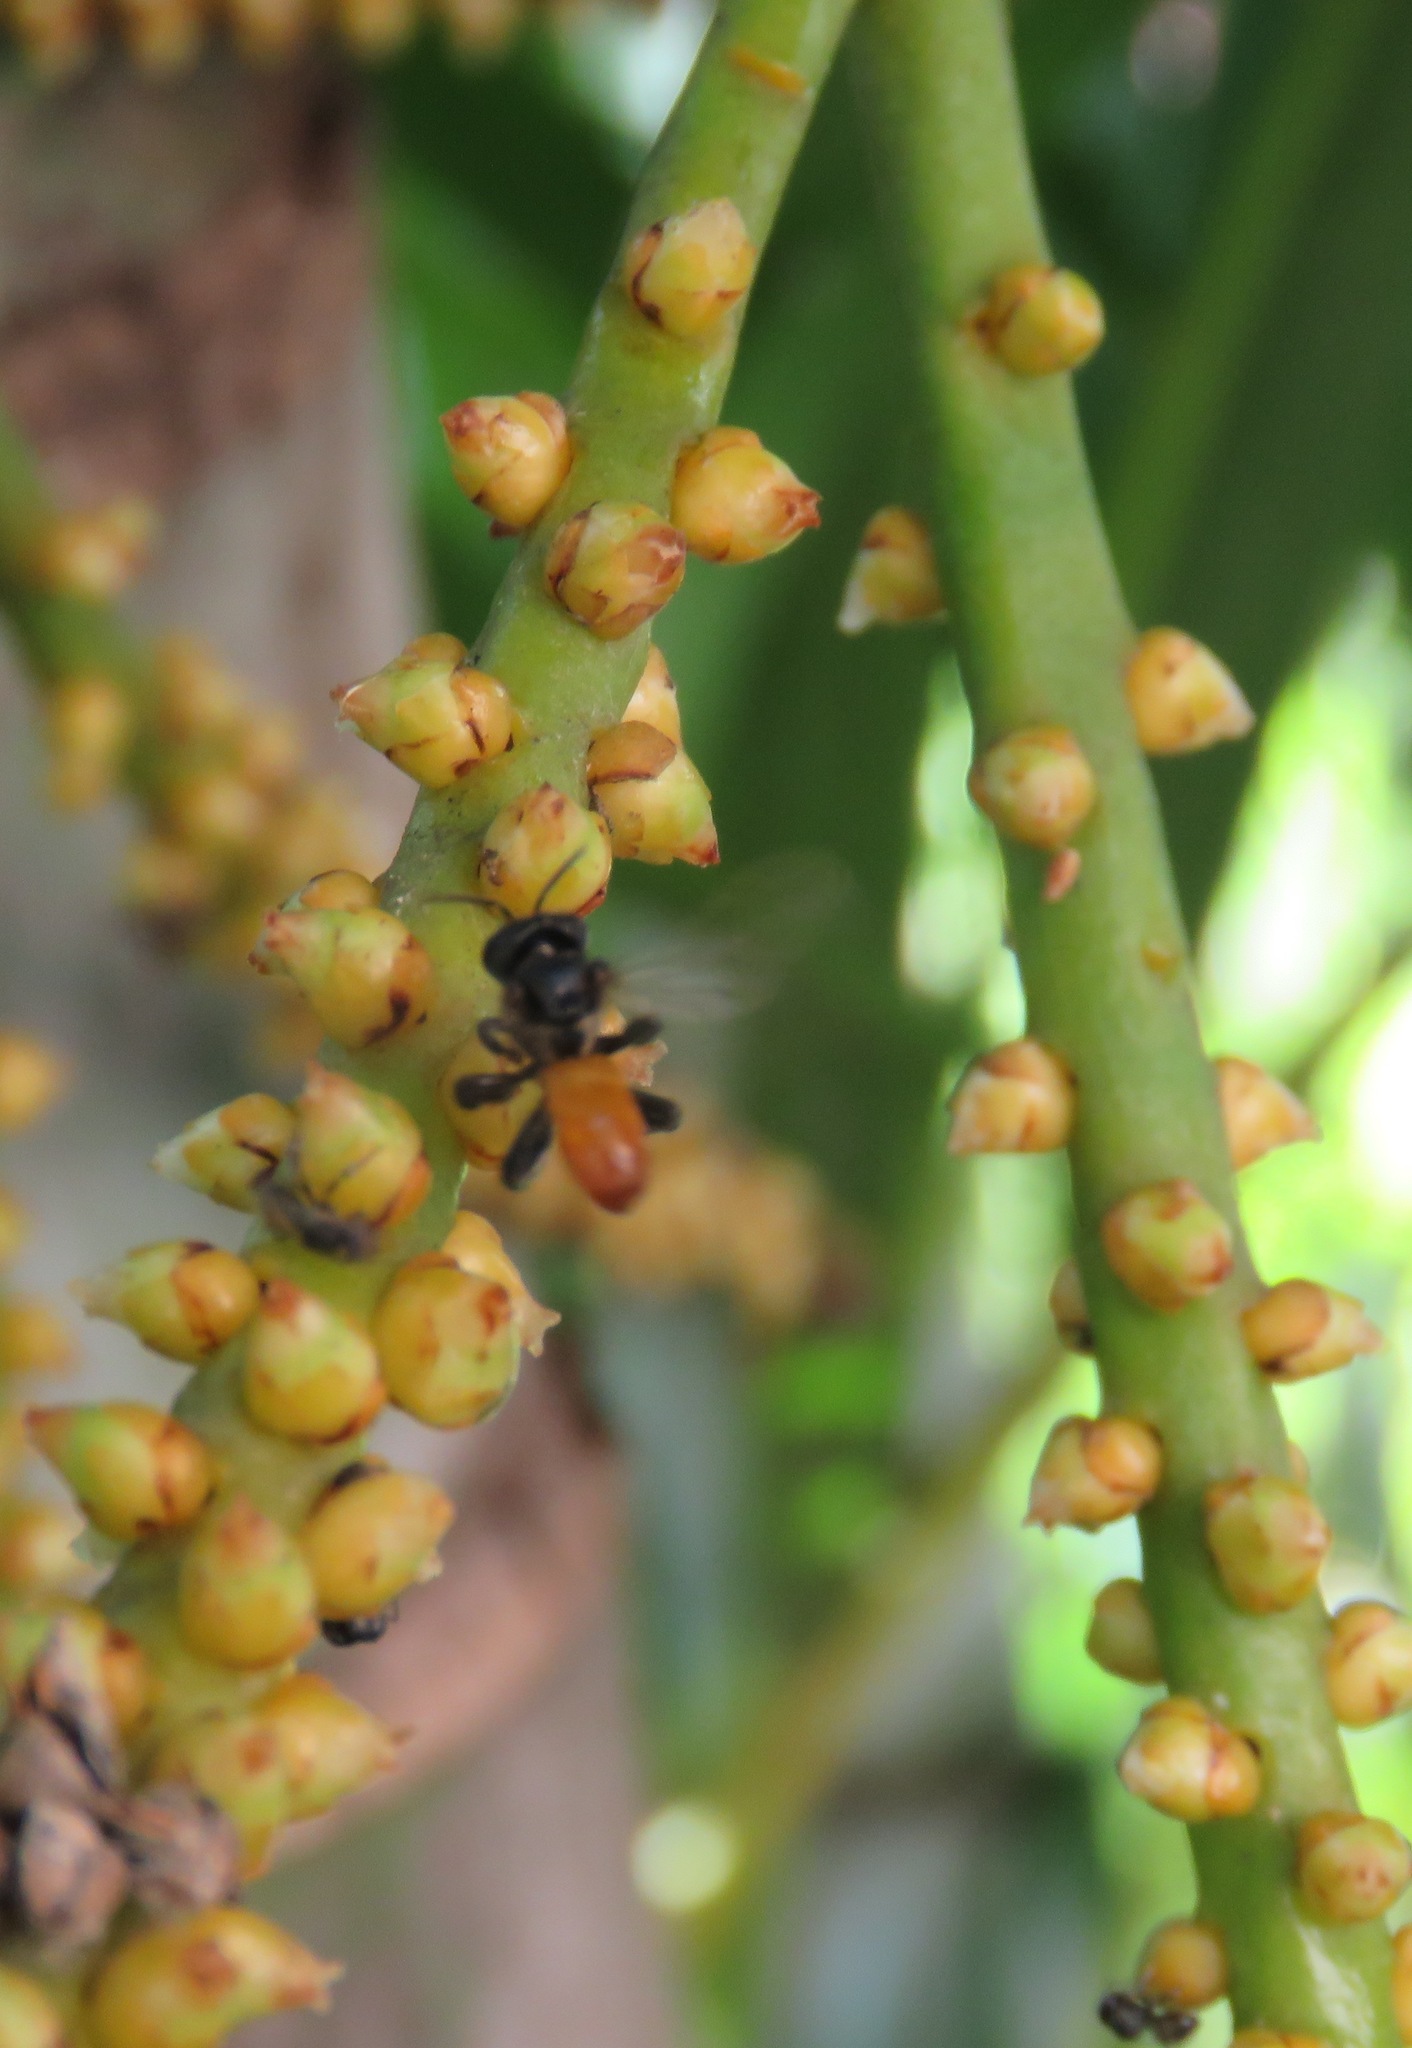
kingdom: Animalia
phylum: Arthropoda
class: Insecta
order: Hymenoptera
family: Apidae
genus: Trigona
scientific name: Trigona fulviventris
